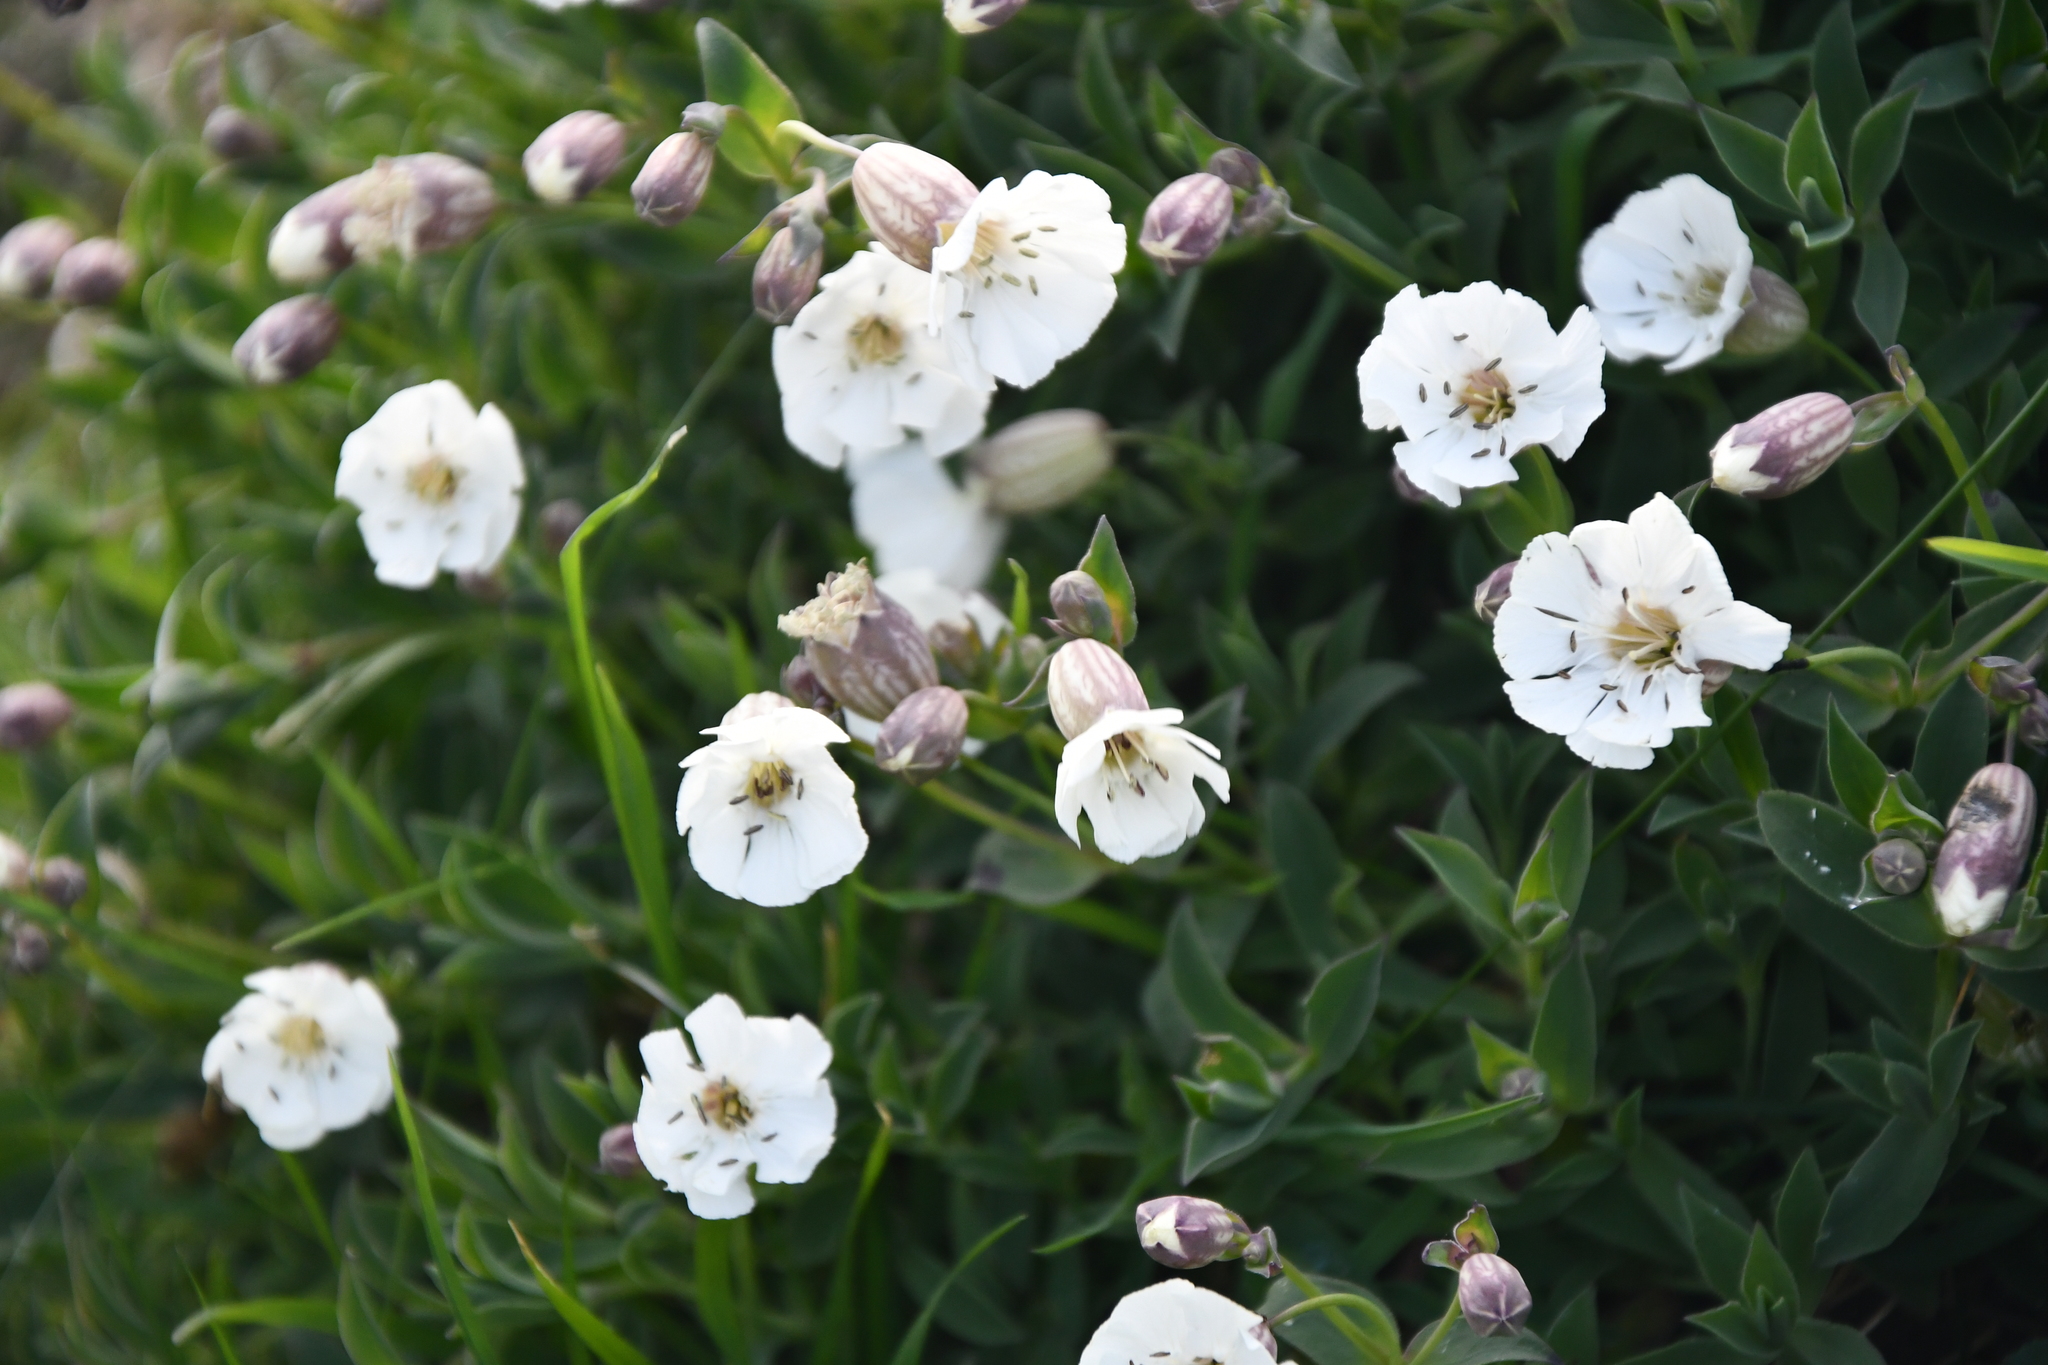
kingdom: Plantae
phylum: Tracheophyta
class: Magnoliopsida
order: Caryophyllales
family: Caryophyllaceae
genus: Silene
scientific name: Silene uniflora
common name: Sea campion
